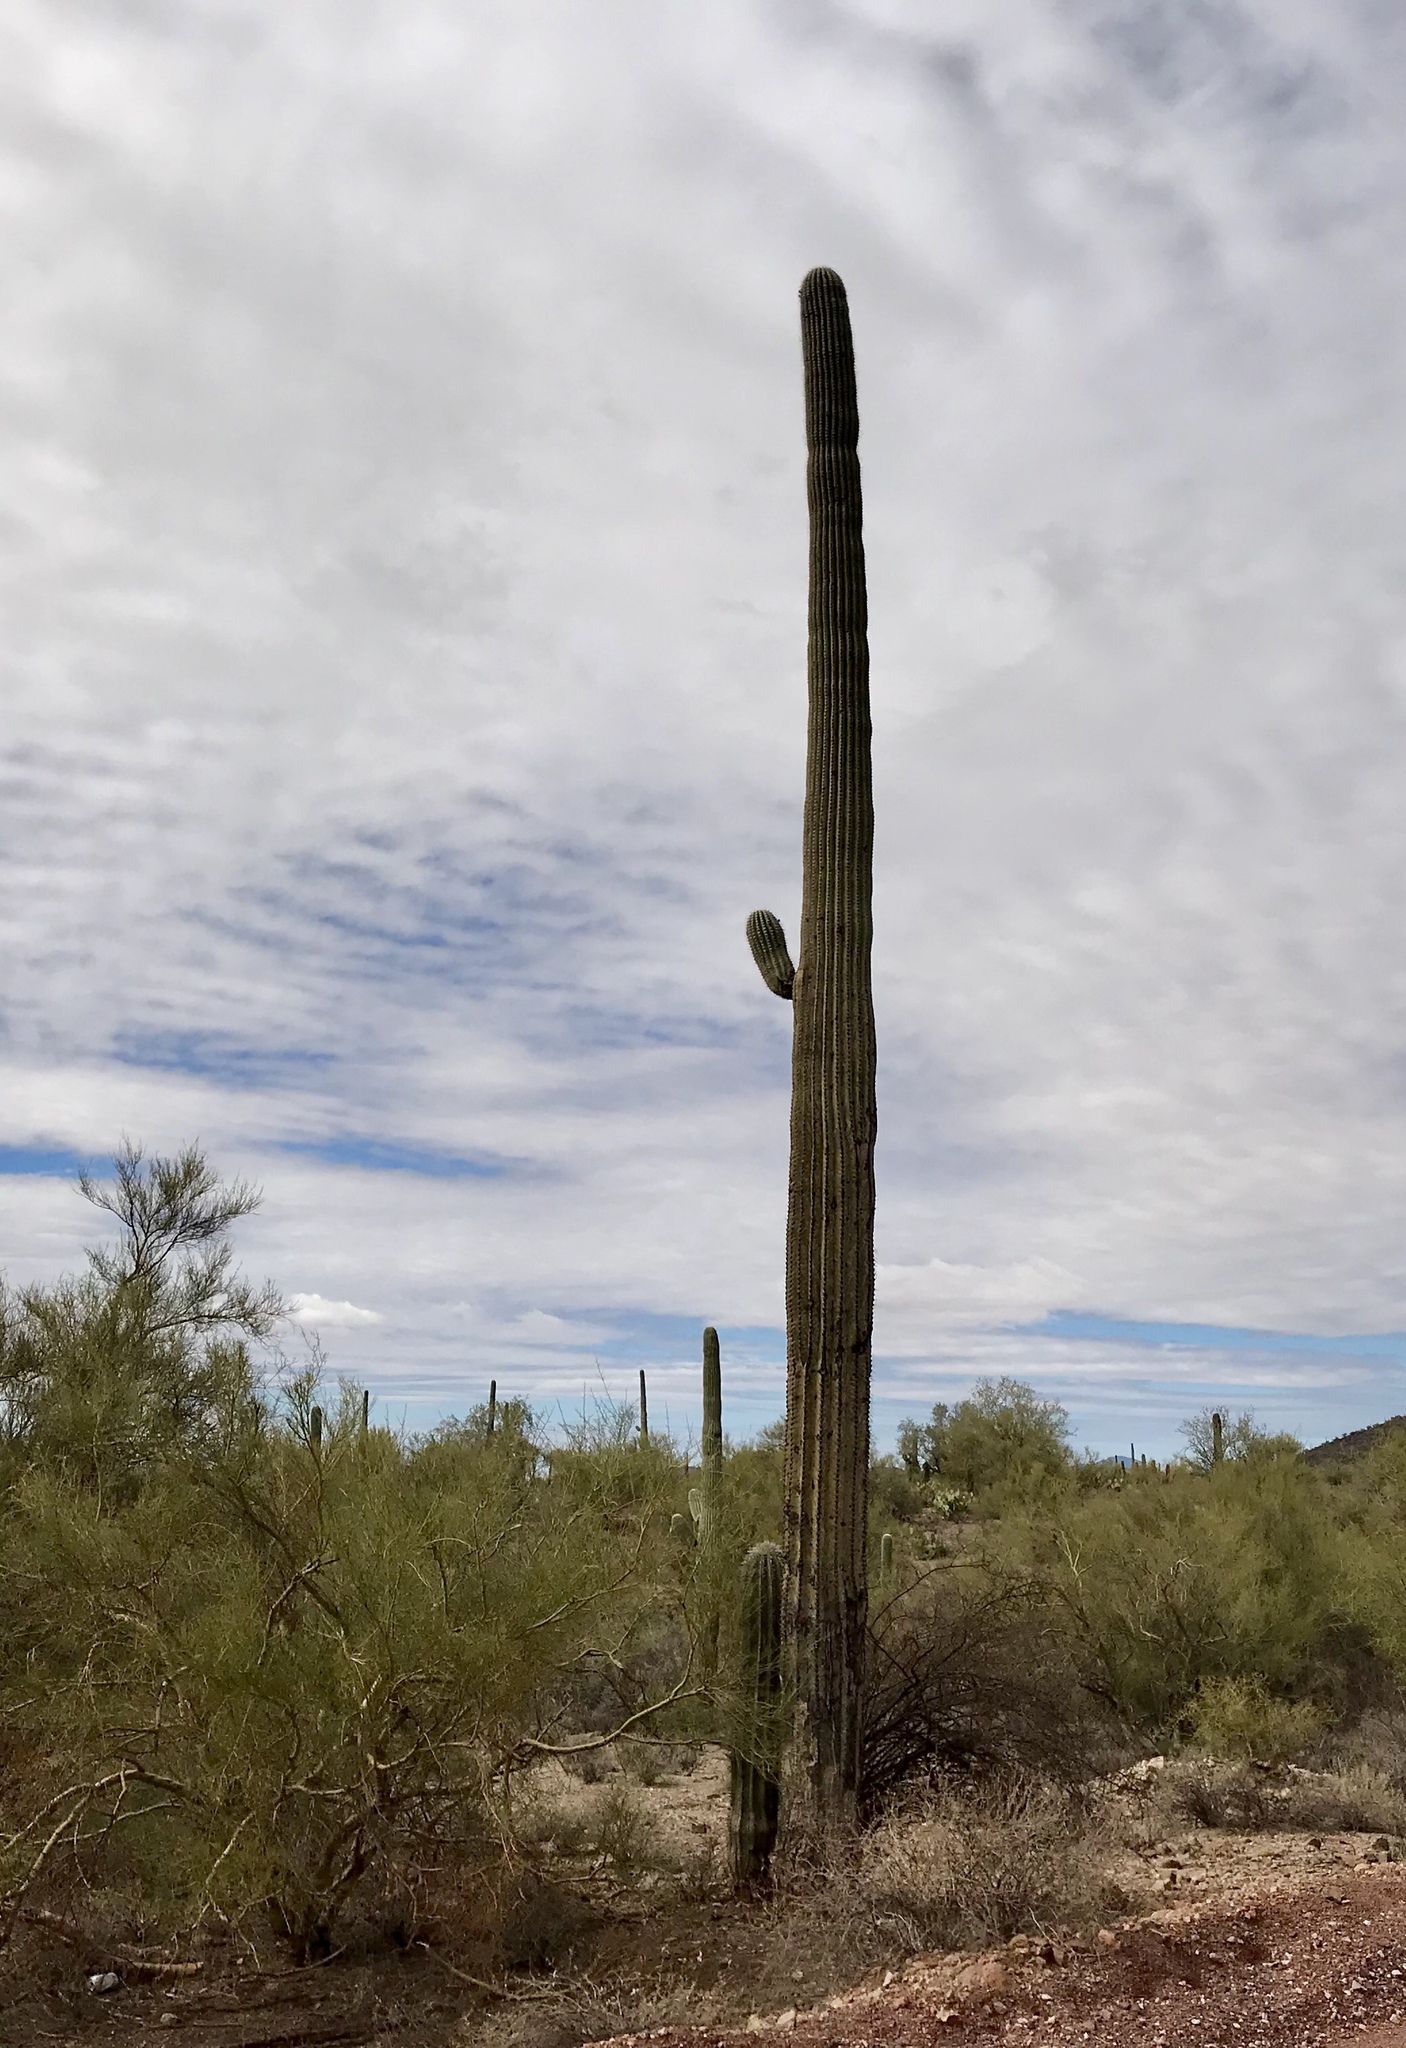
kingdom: Plantae
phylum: Tracheophyta
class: Magnoliopsida
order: Caryophyllales
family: Cactaceae
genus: Carnegiea
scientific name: Carnegiea gigantea
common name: Saguaro
